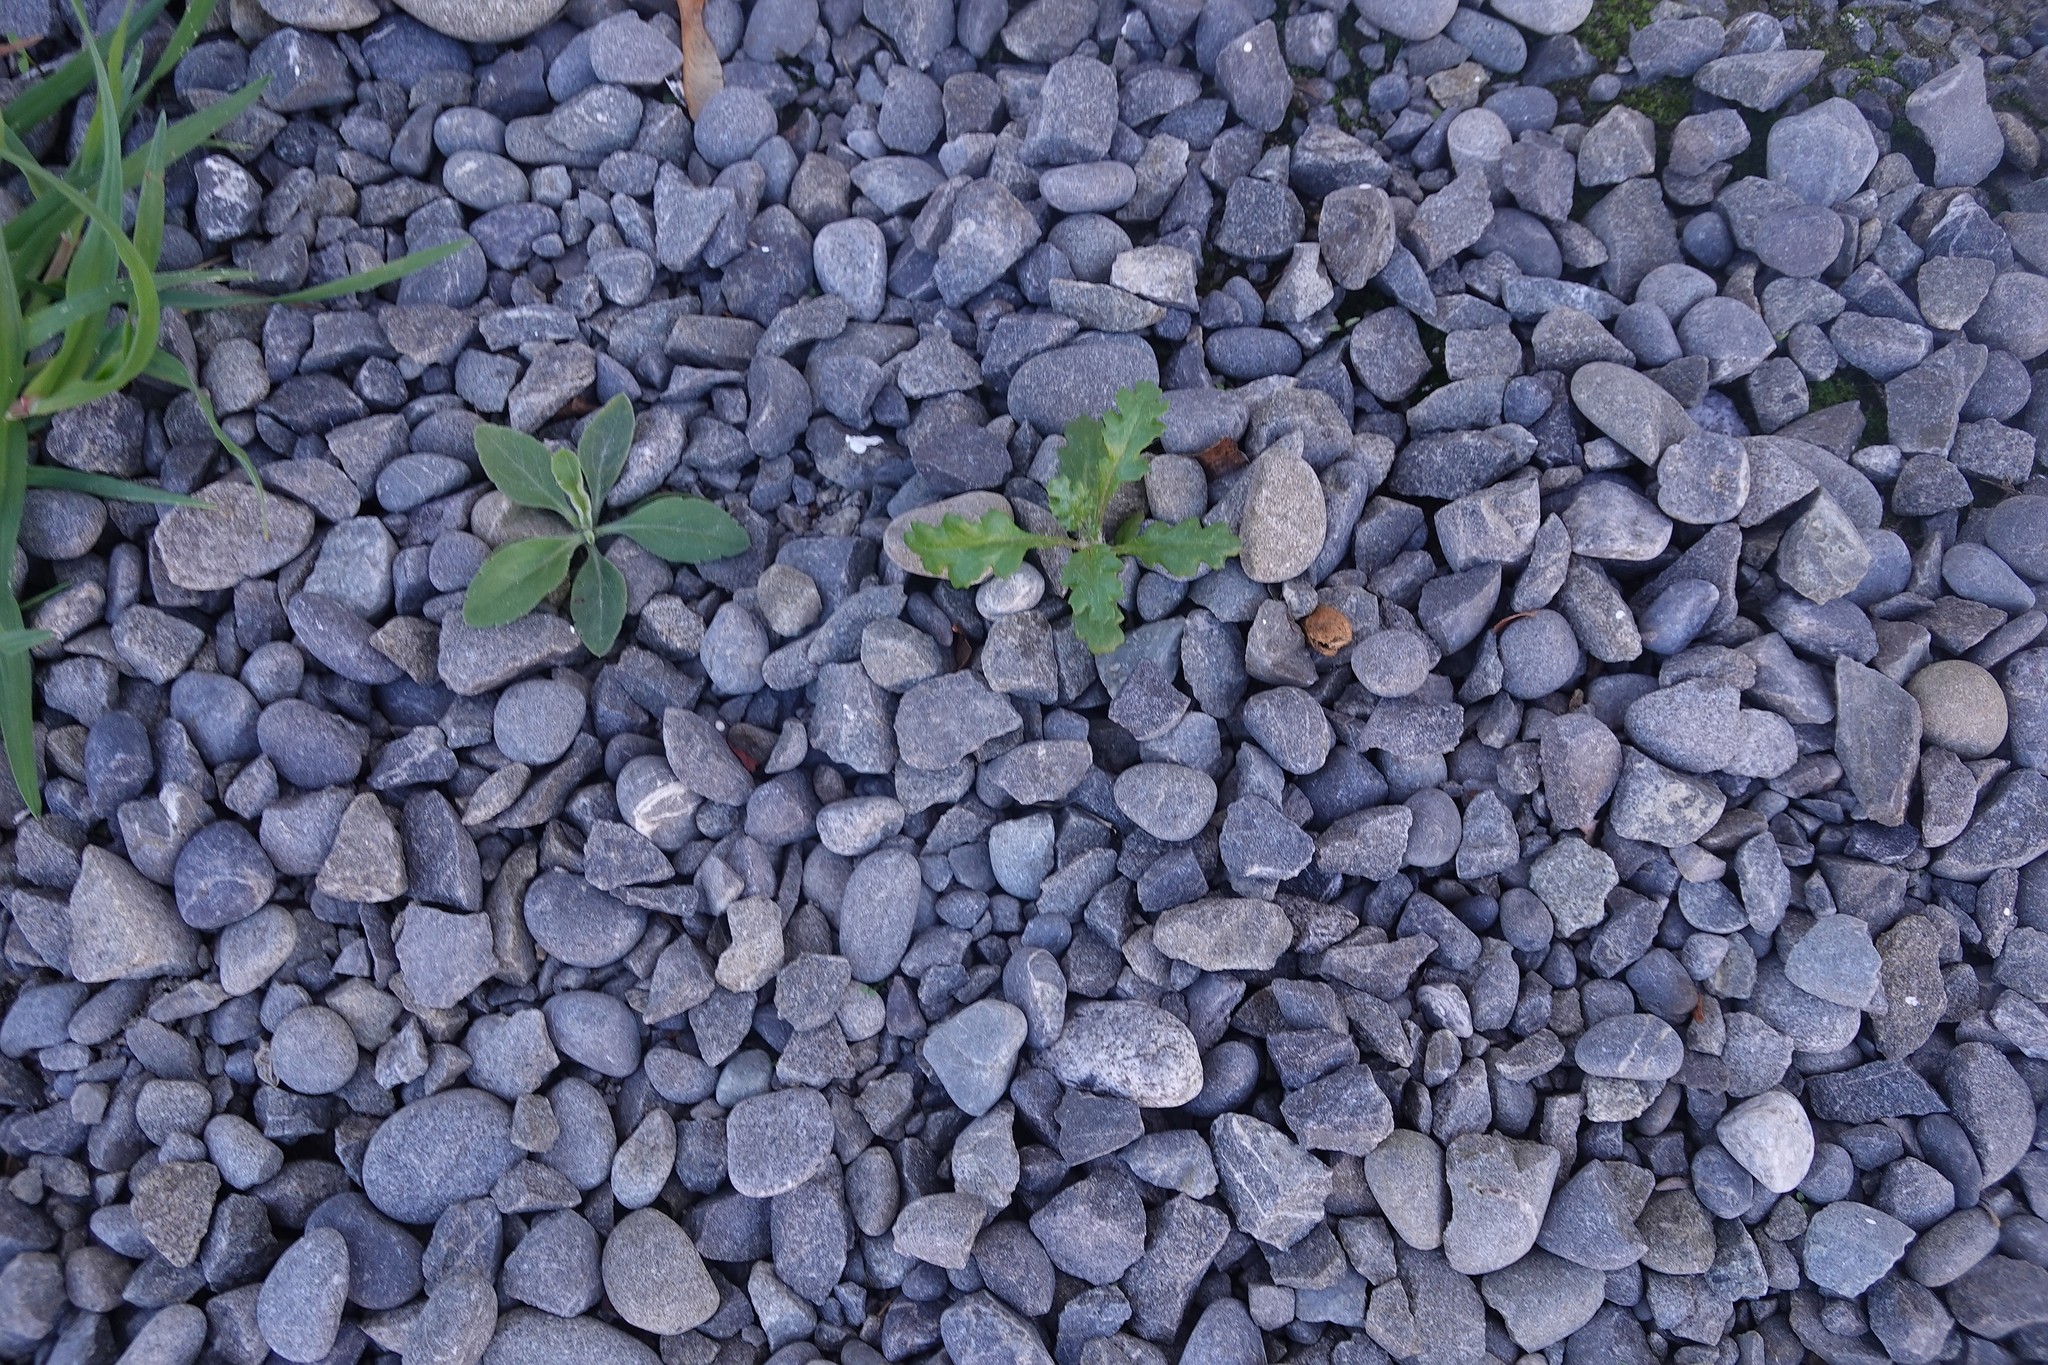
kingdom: Plantae
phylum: Tracheophyta
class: Magnoliopsida
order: Asterales
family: Asteraceae
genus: Senecio
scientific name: Senecio vulgaris
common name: Old-man-in-the-spring
